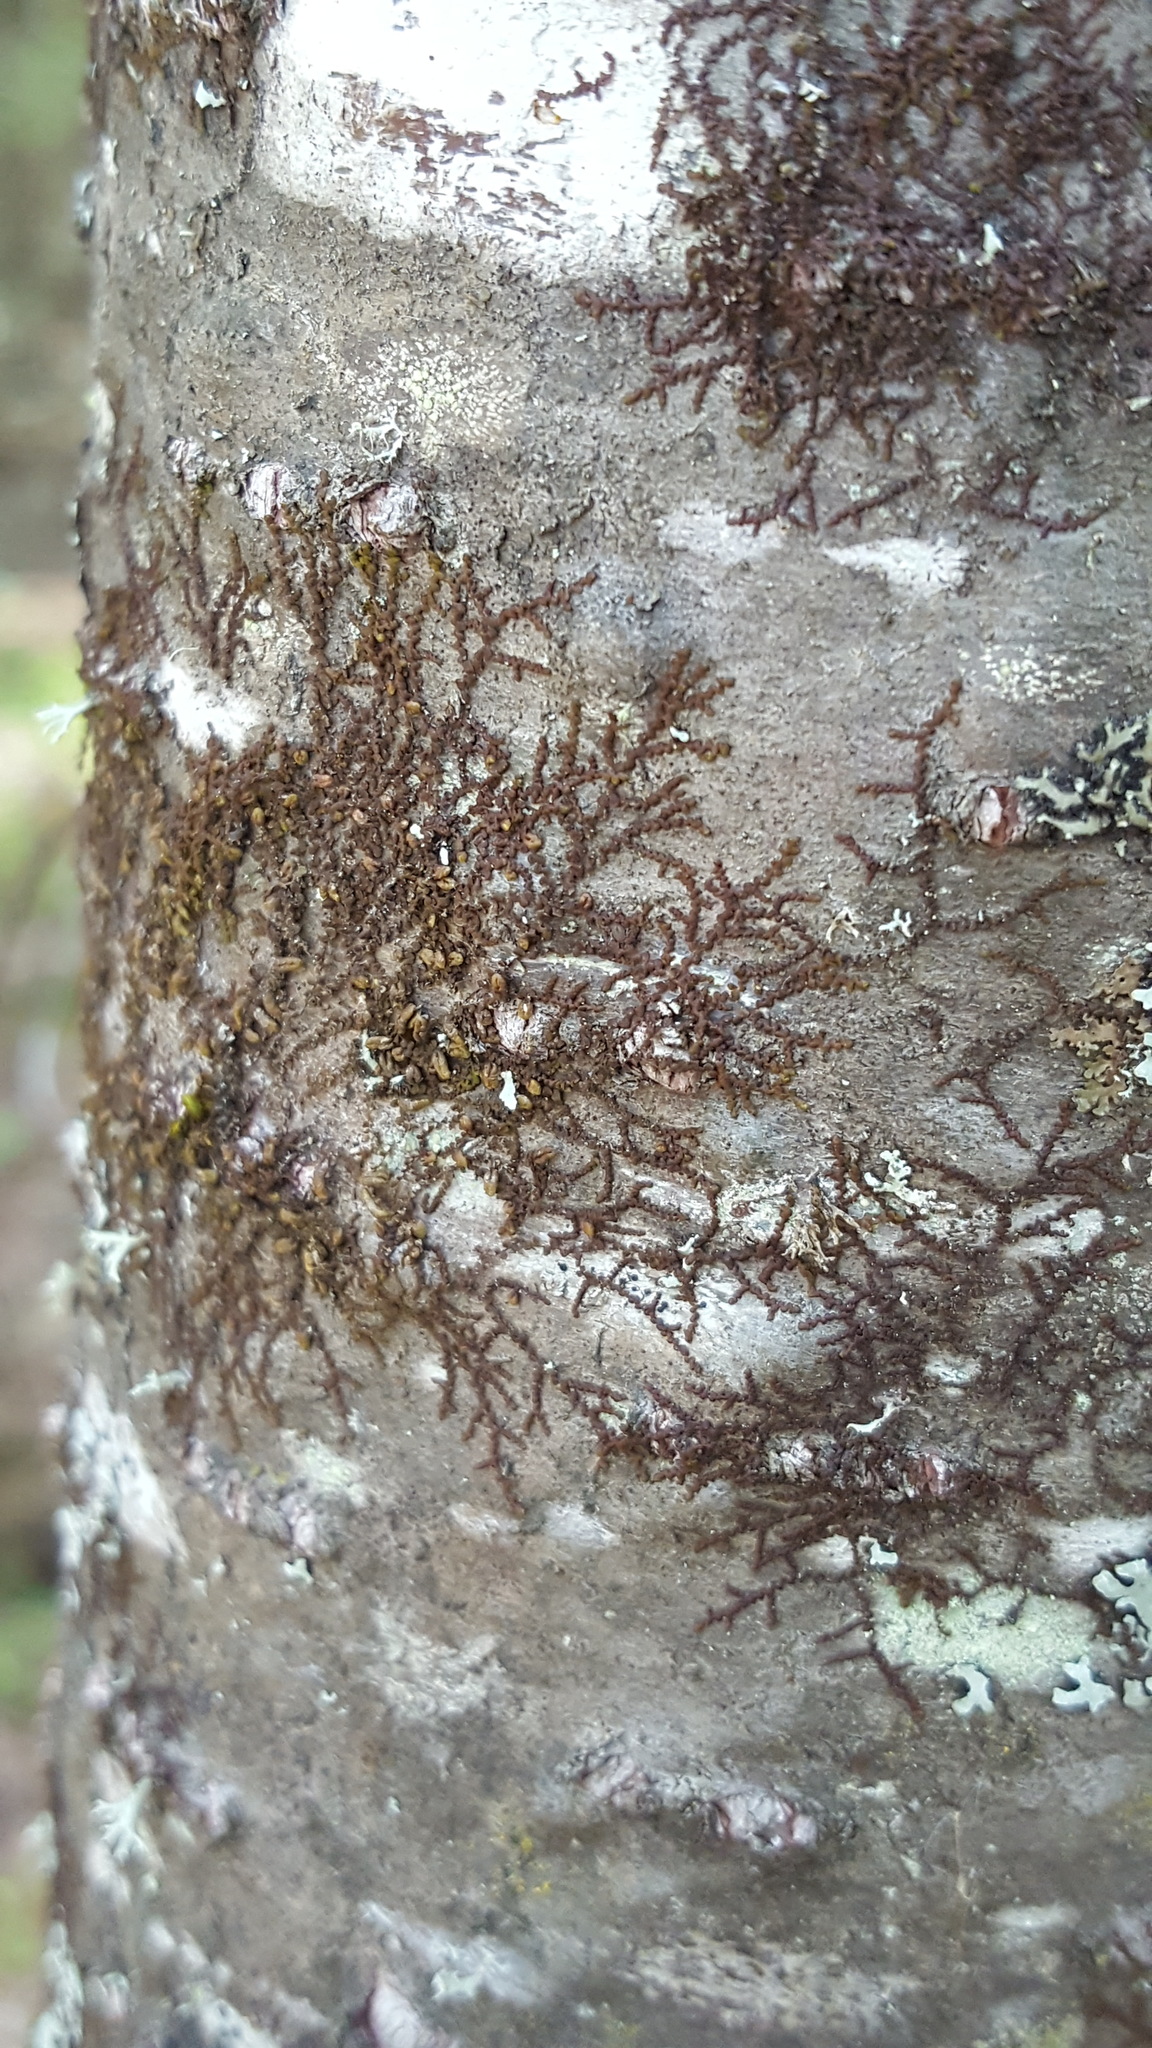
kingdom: Plantae
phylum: Marchantiophyta
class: Jungermanniopsida
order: Porellales
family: Frullaniaceae
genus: Frullania
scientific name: Frullania eboracensis
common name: New york scalewort
